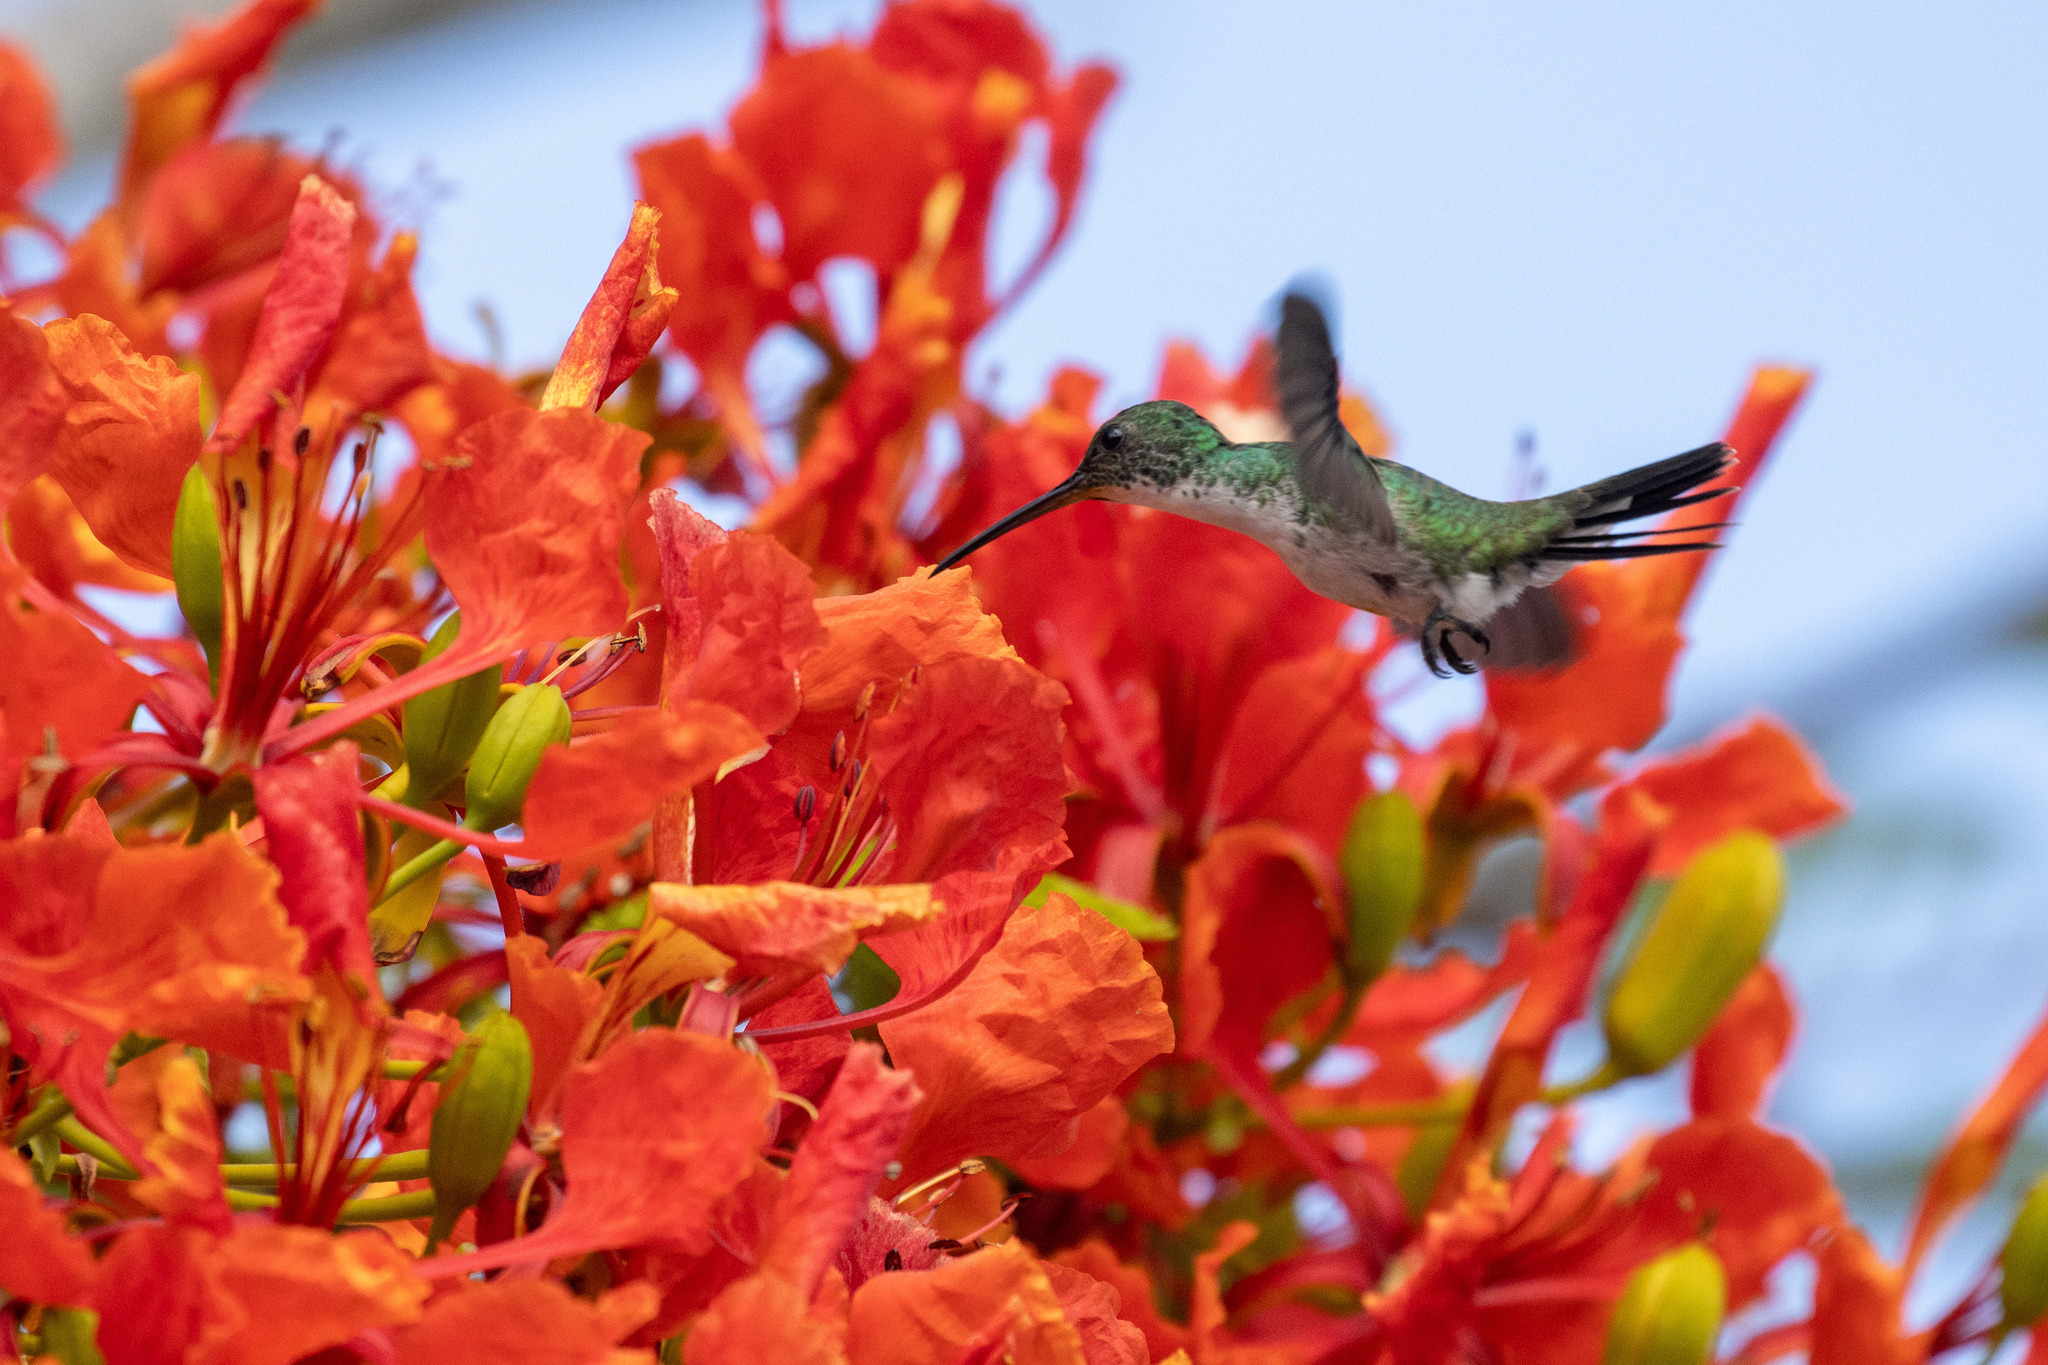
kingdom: Animalia
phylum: Chordata
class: Aves
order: Apodiformes
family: Trochilidae
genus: Chrysuronia
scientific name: Chrysuronia leucogaster
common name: Plain-bellied emerald
